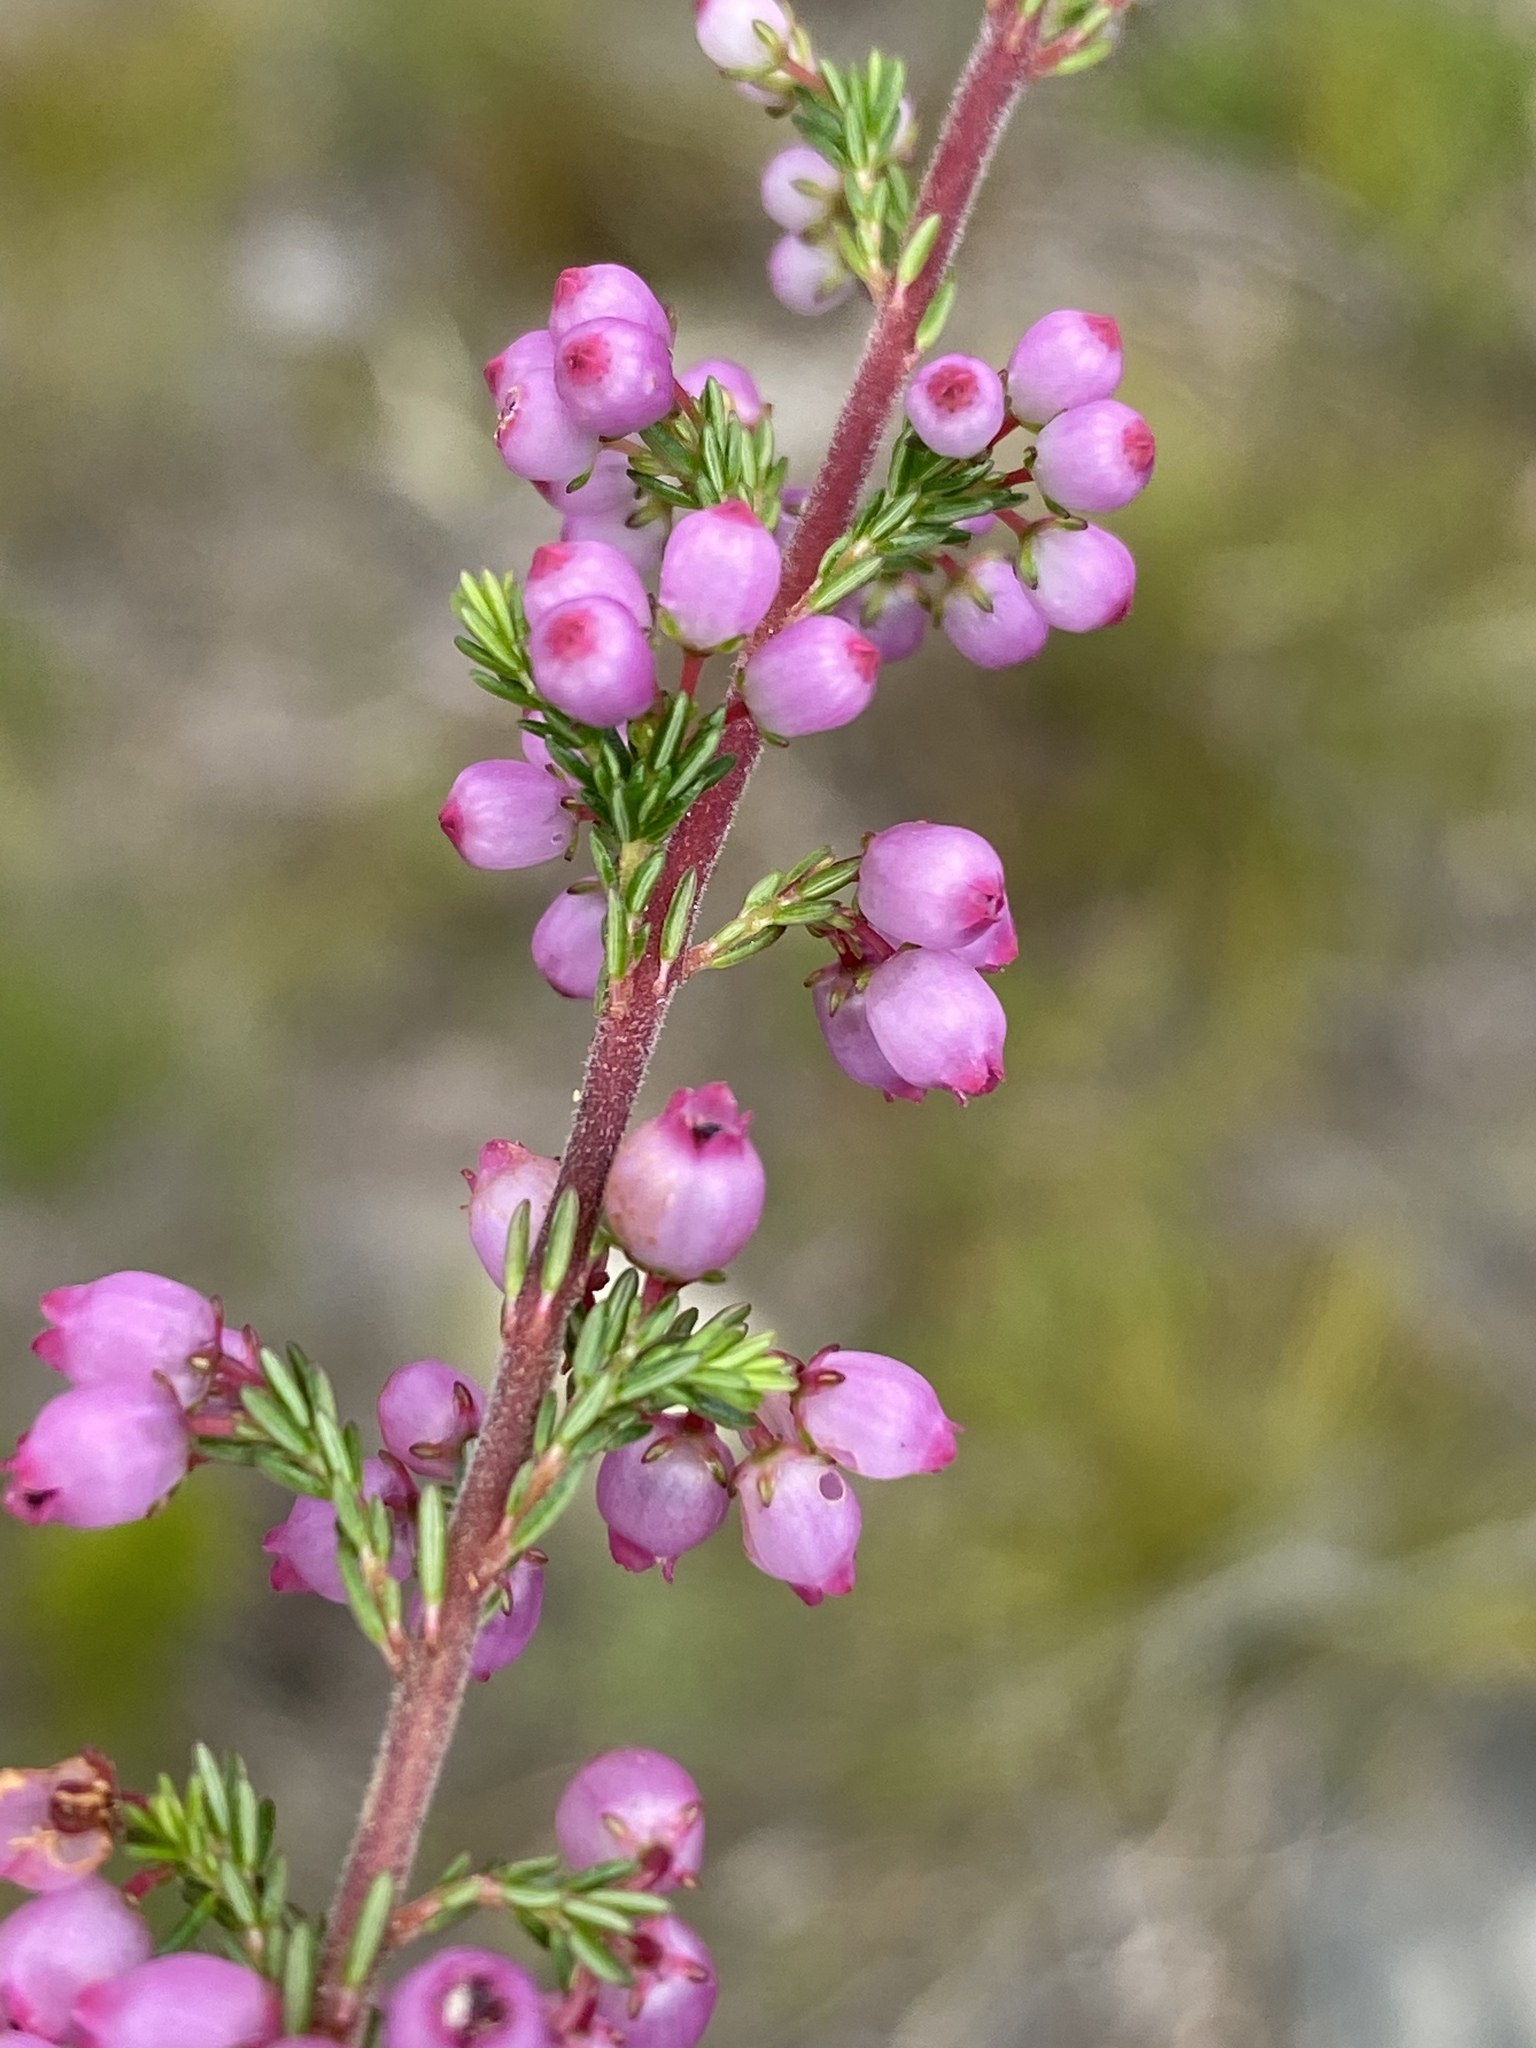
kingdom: Plantae
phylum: Tracheophyta
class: Magnoliopsida
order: Ericales
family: Ericaceae
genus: Erica
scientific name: Erica gracilis
